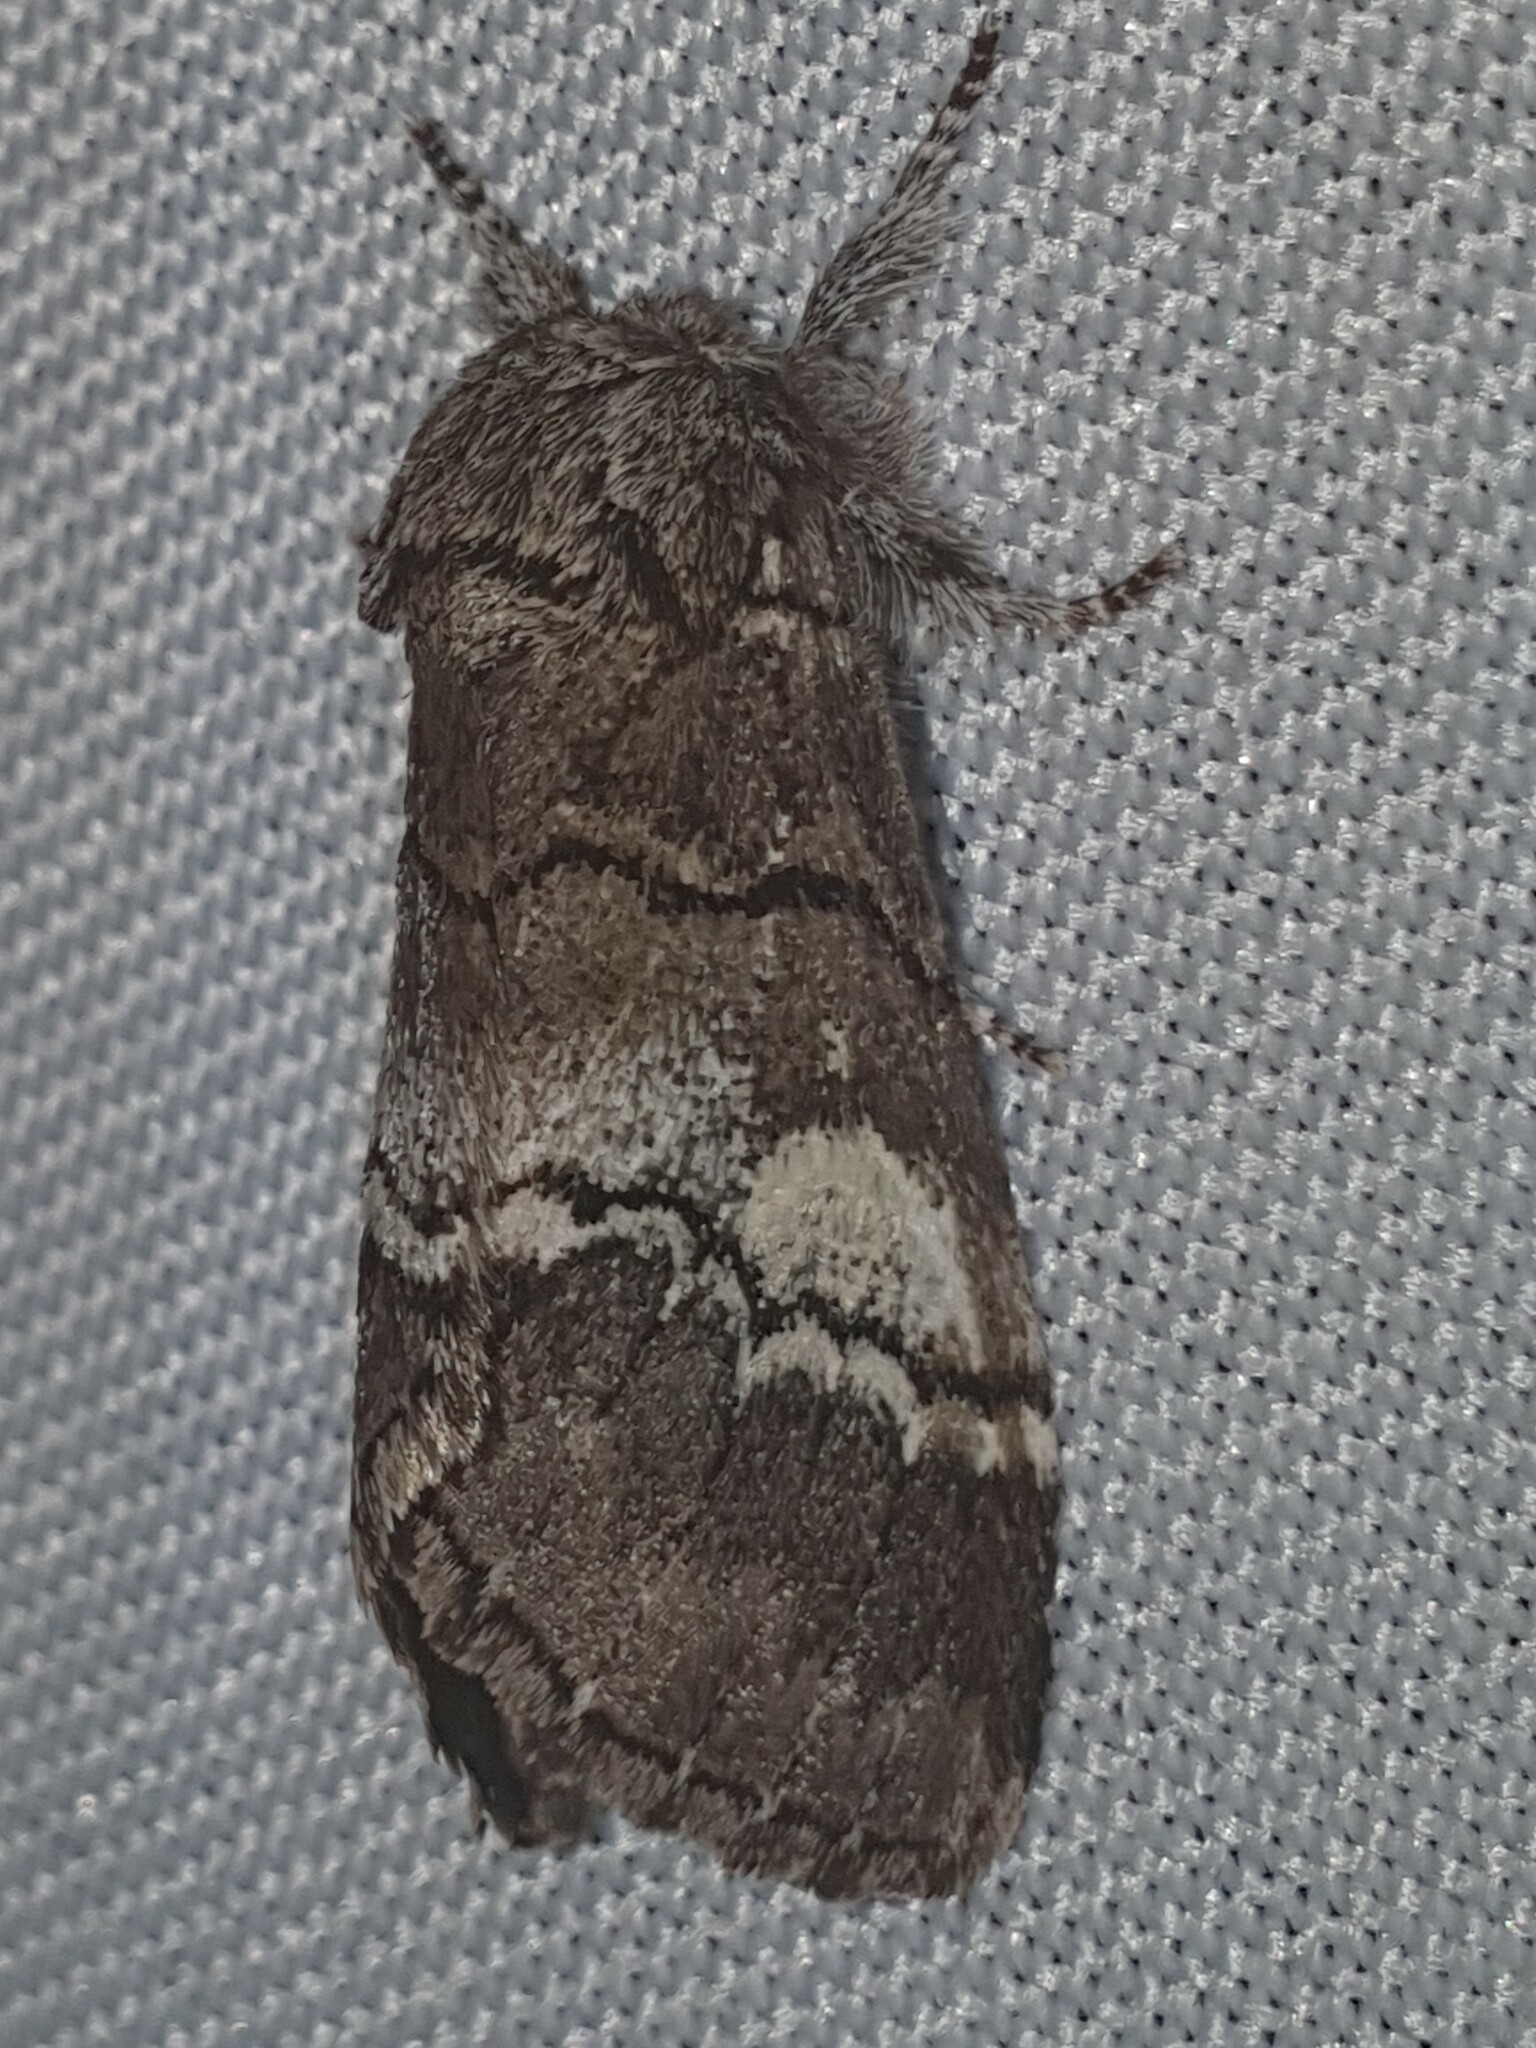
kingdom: Animalia
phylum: Arthropoda
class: Insecta
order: Lepidoptera
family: Notodontidae
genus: Drymonia
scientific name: Drymonia querna
